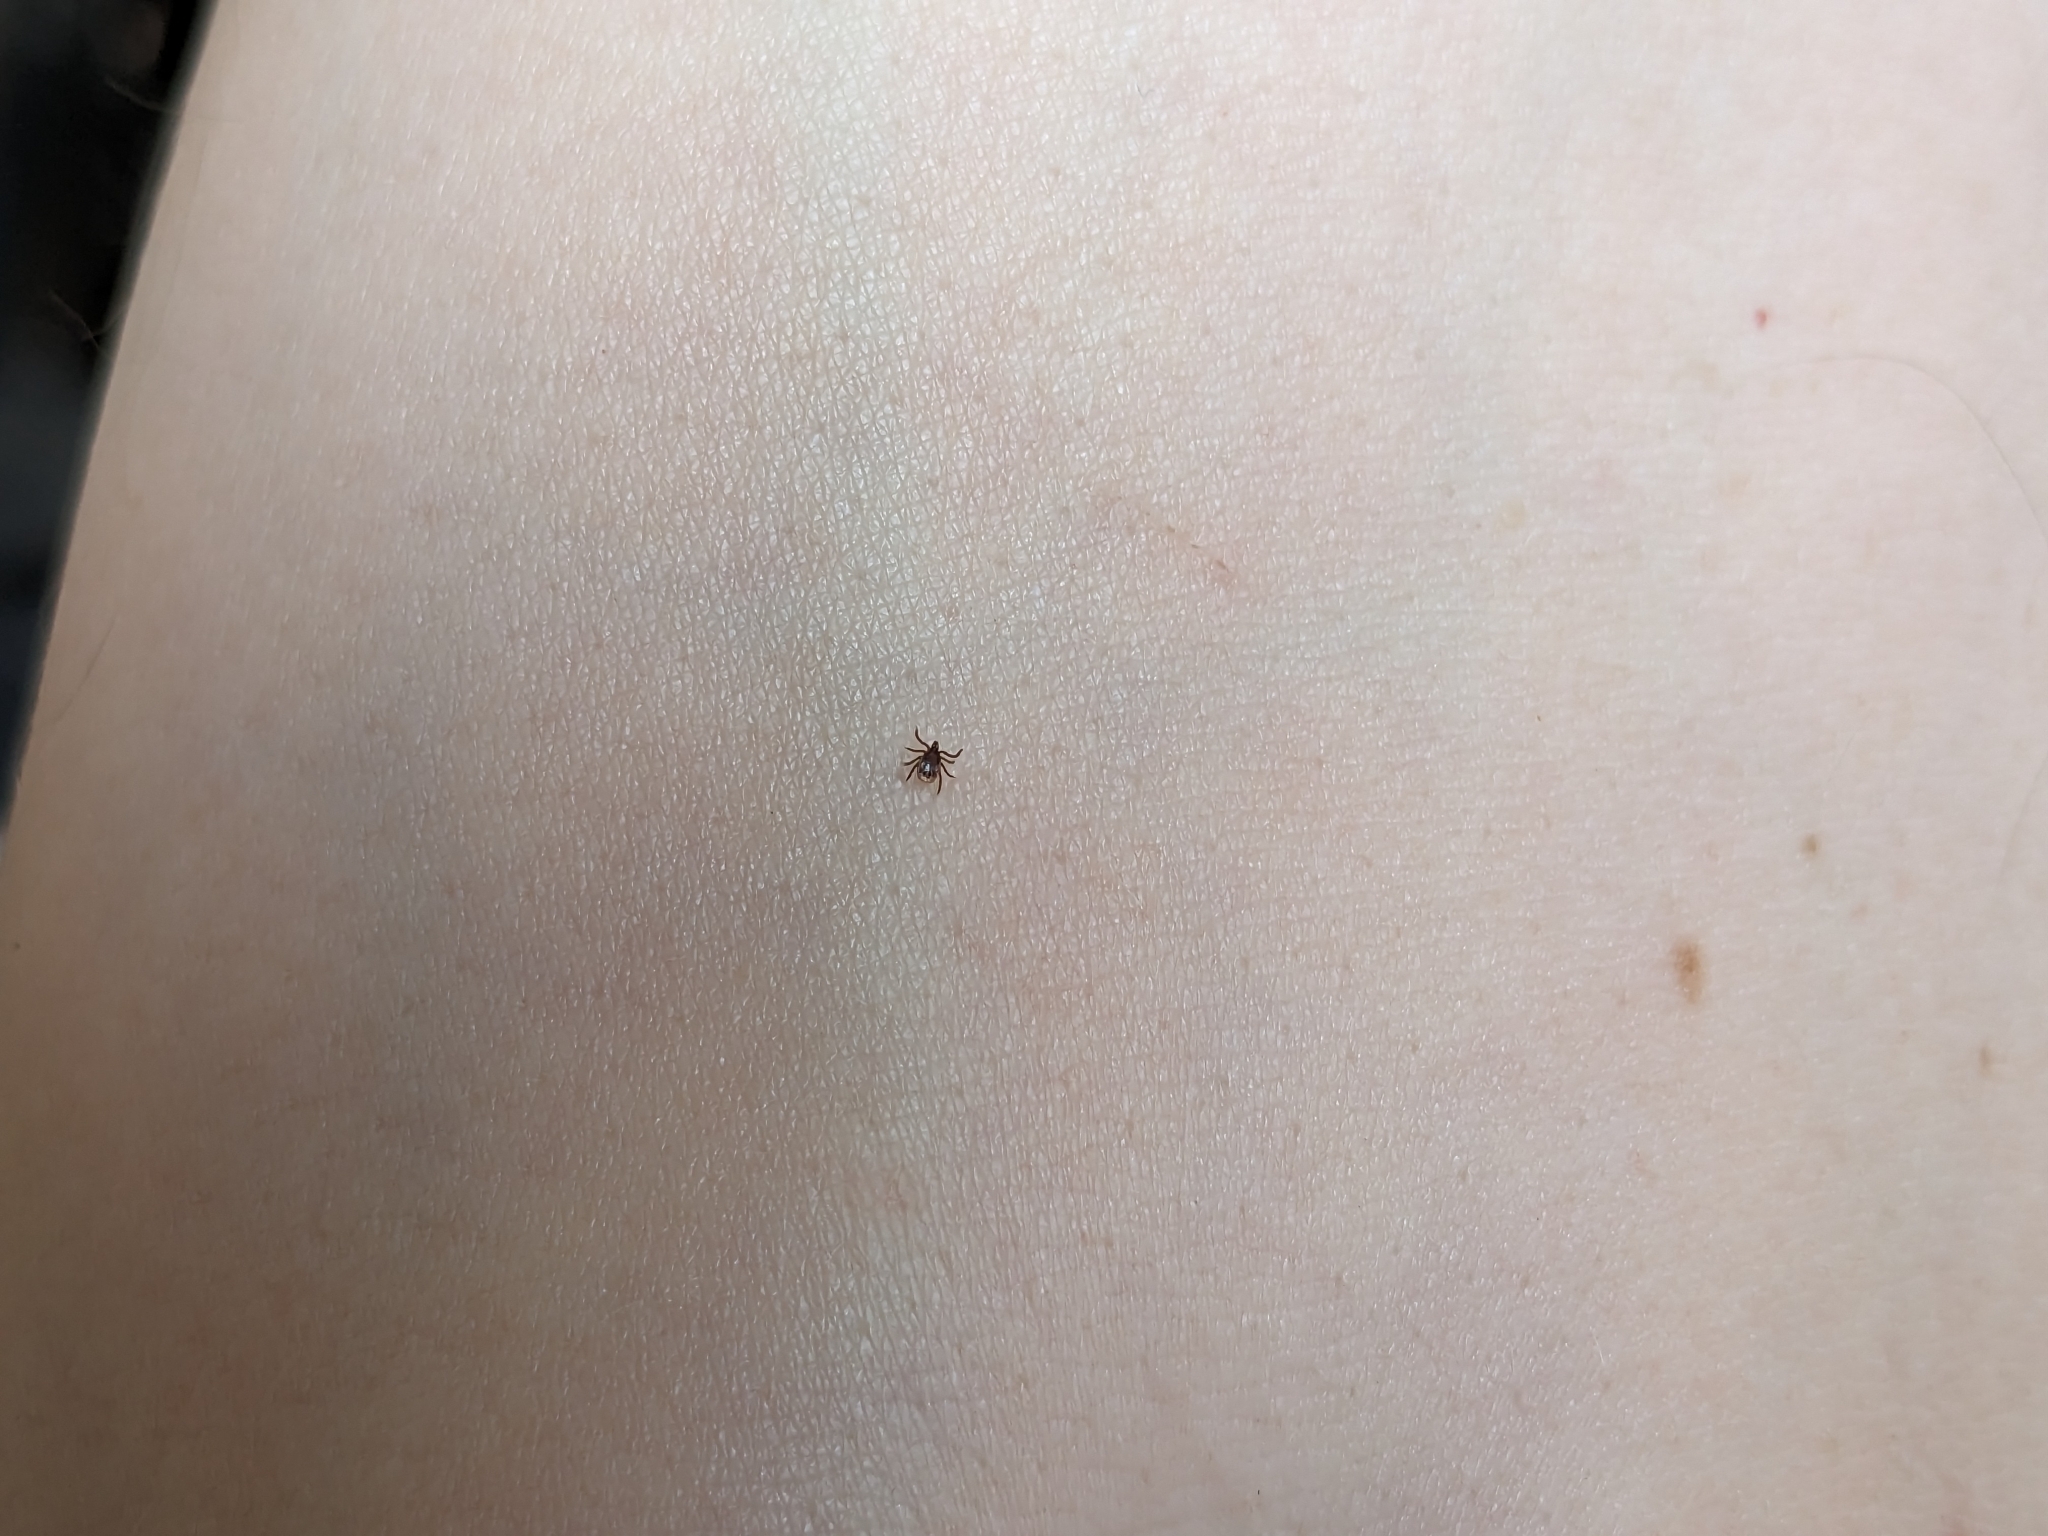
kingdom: Animalia
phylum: Arthropoda
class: Arachnida
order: Ixodida
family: Ixodidae
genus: Ixodes
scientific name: Ixodes ricinus
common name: Castor bean tick
